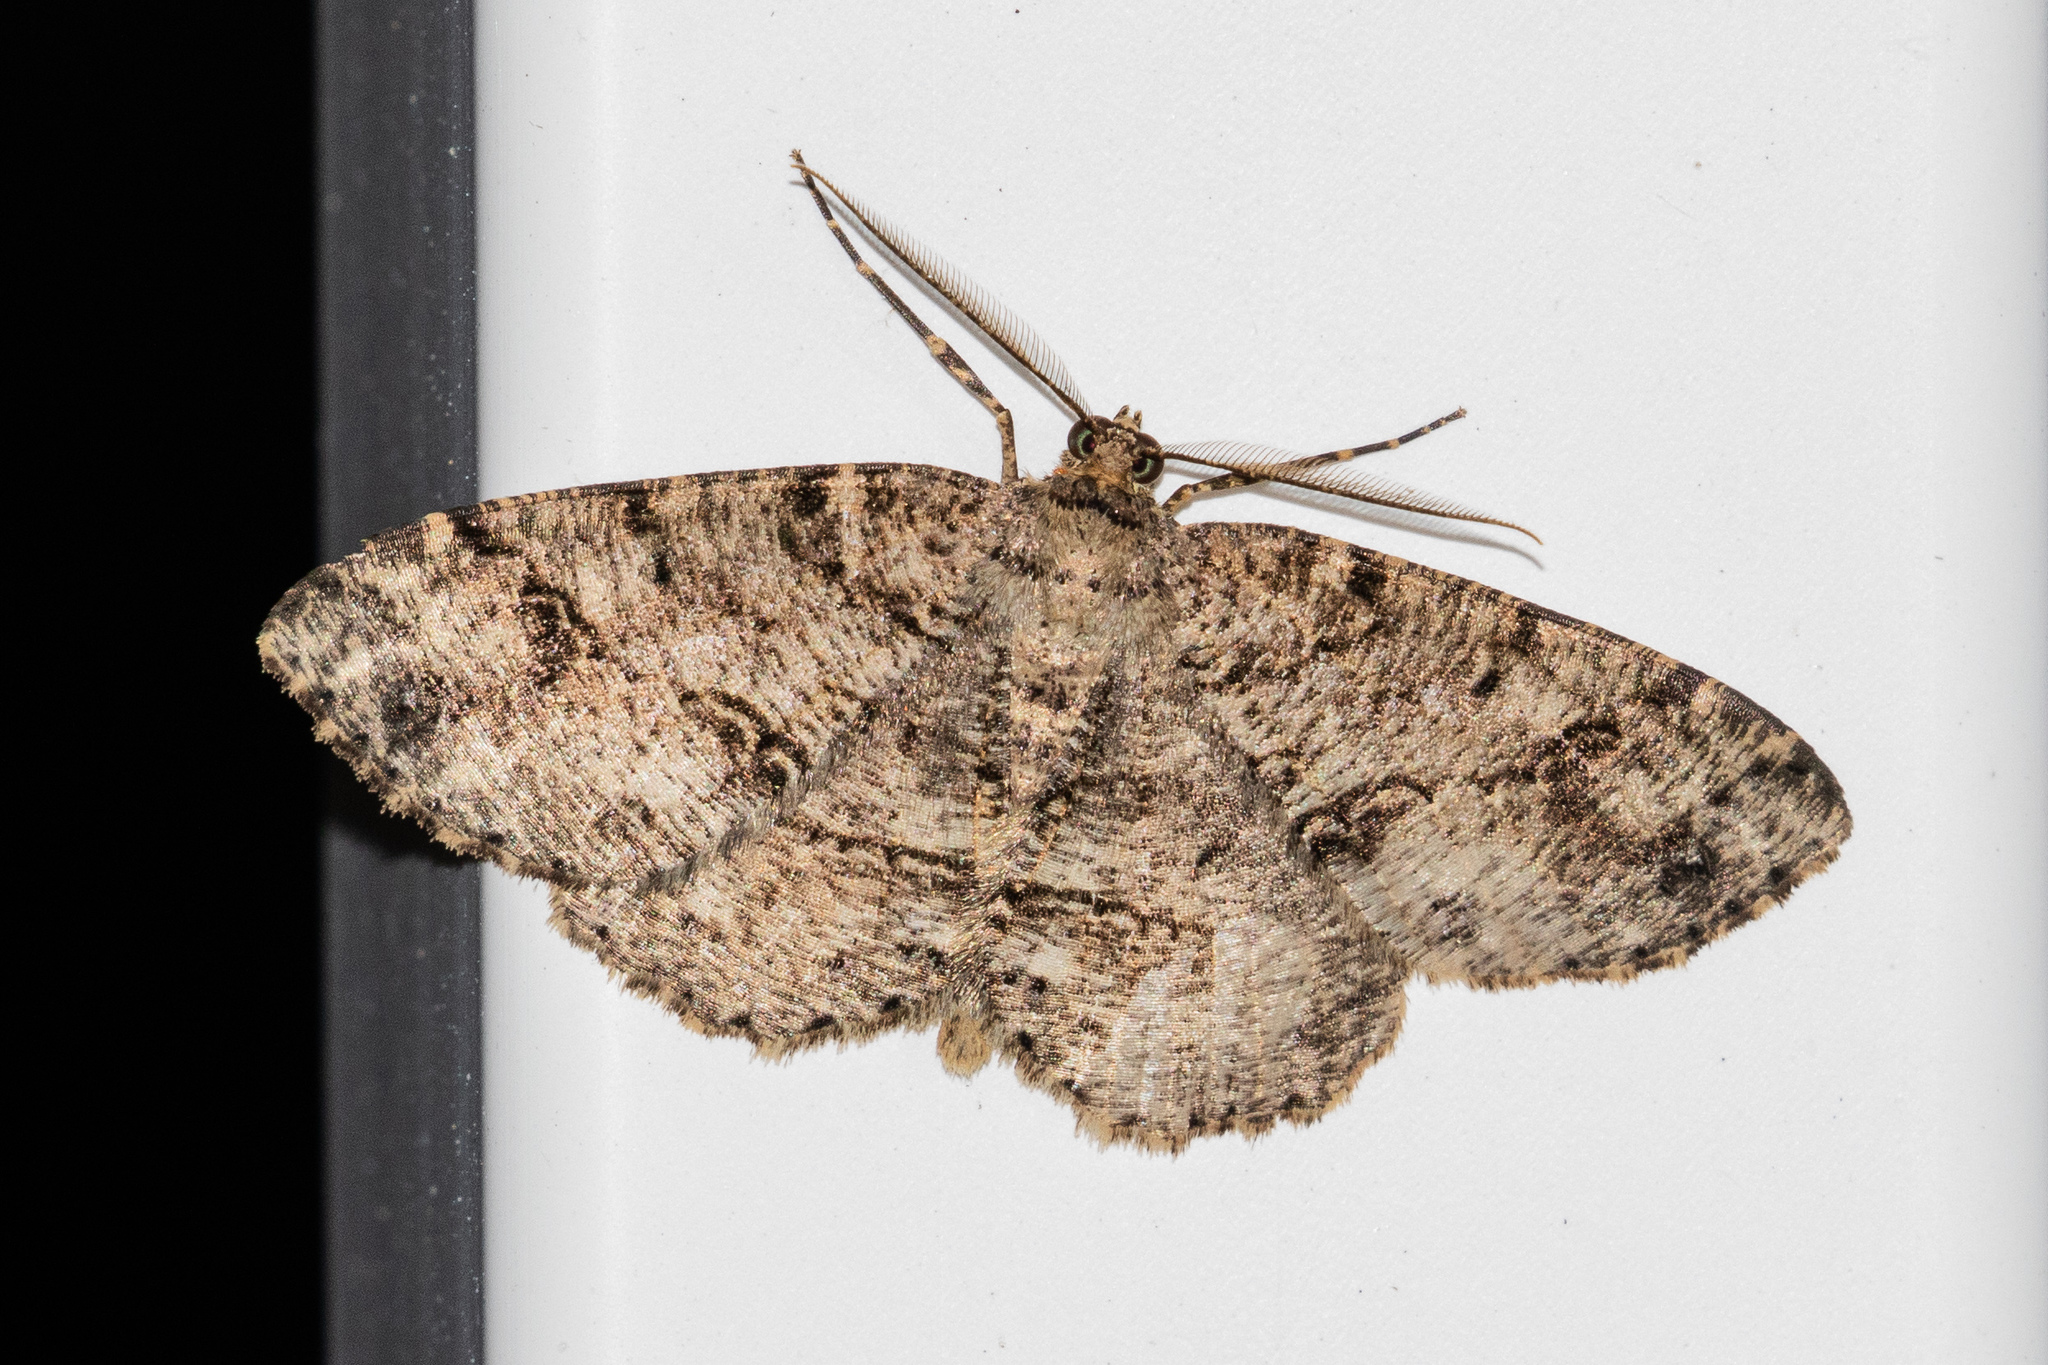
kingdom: Animalia
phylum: Arthropoda
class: Insecta
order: Lepidoptera
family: Geometridae
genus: Melanolophia
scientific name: Melanolophia canadaria
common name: Canadian melanolophia
